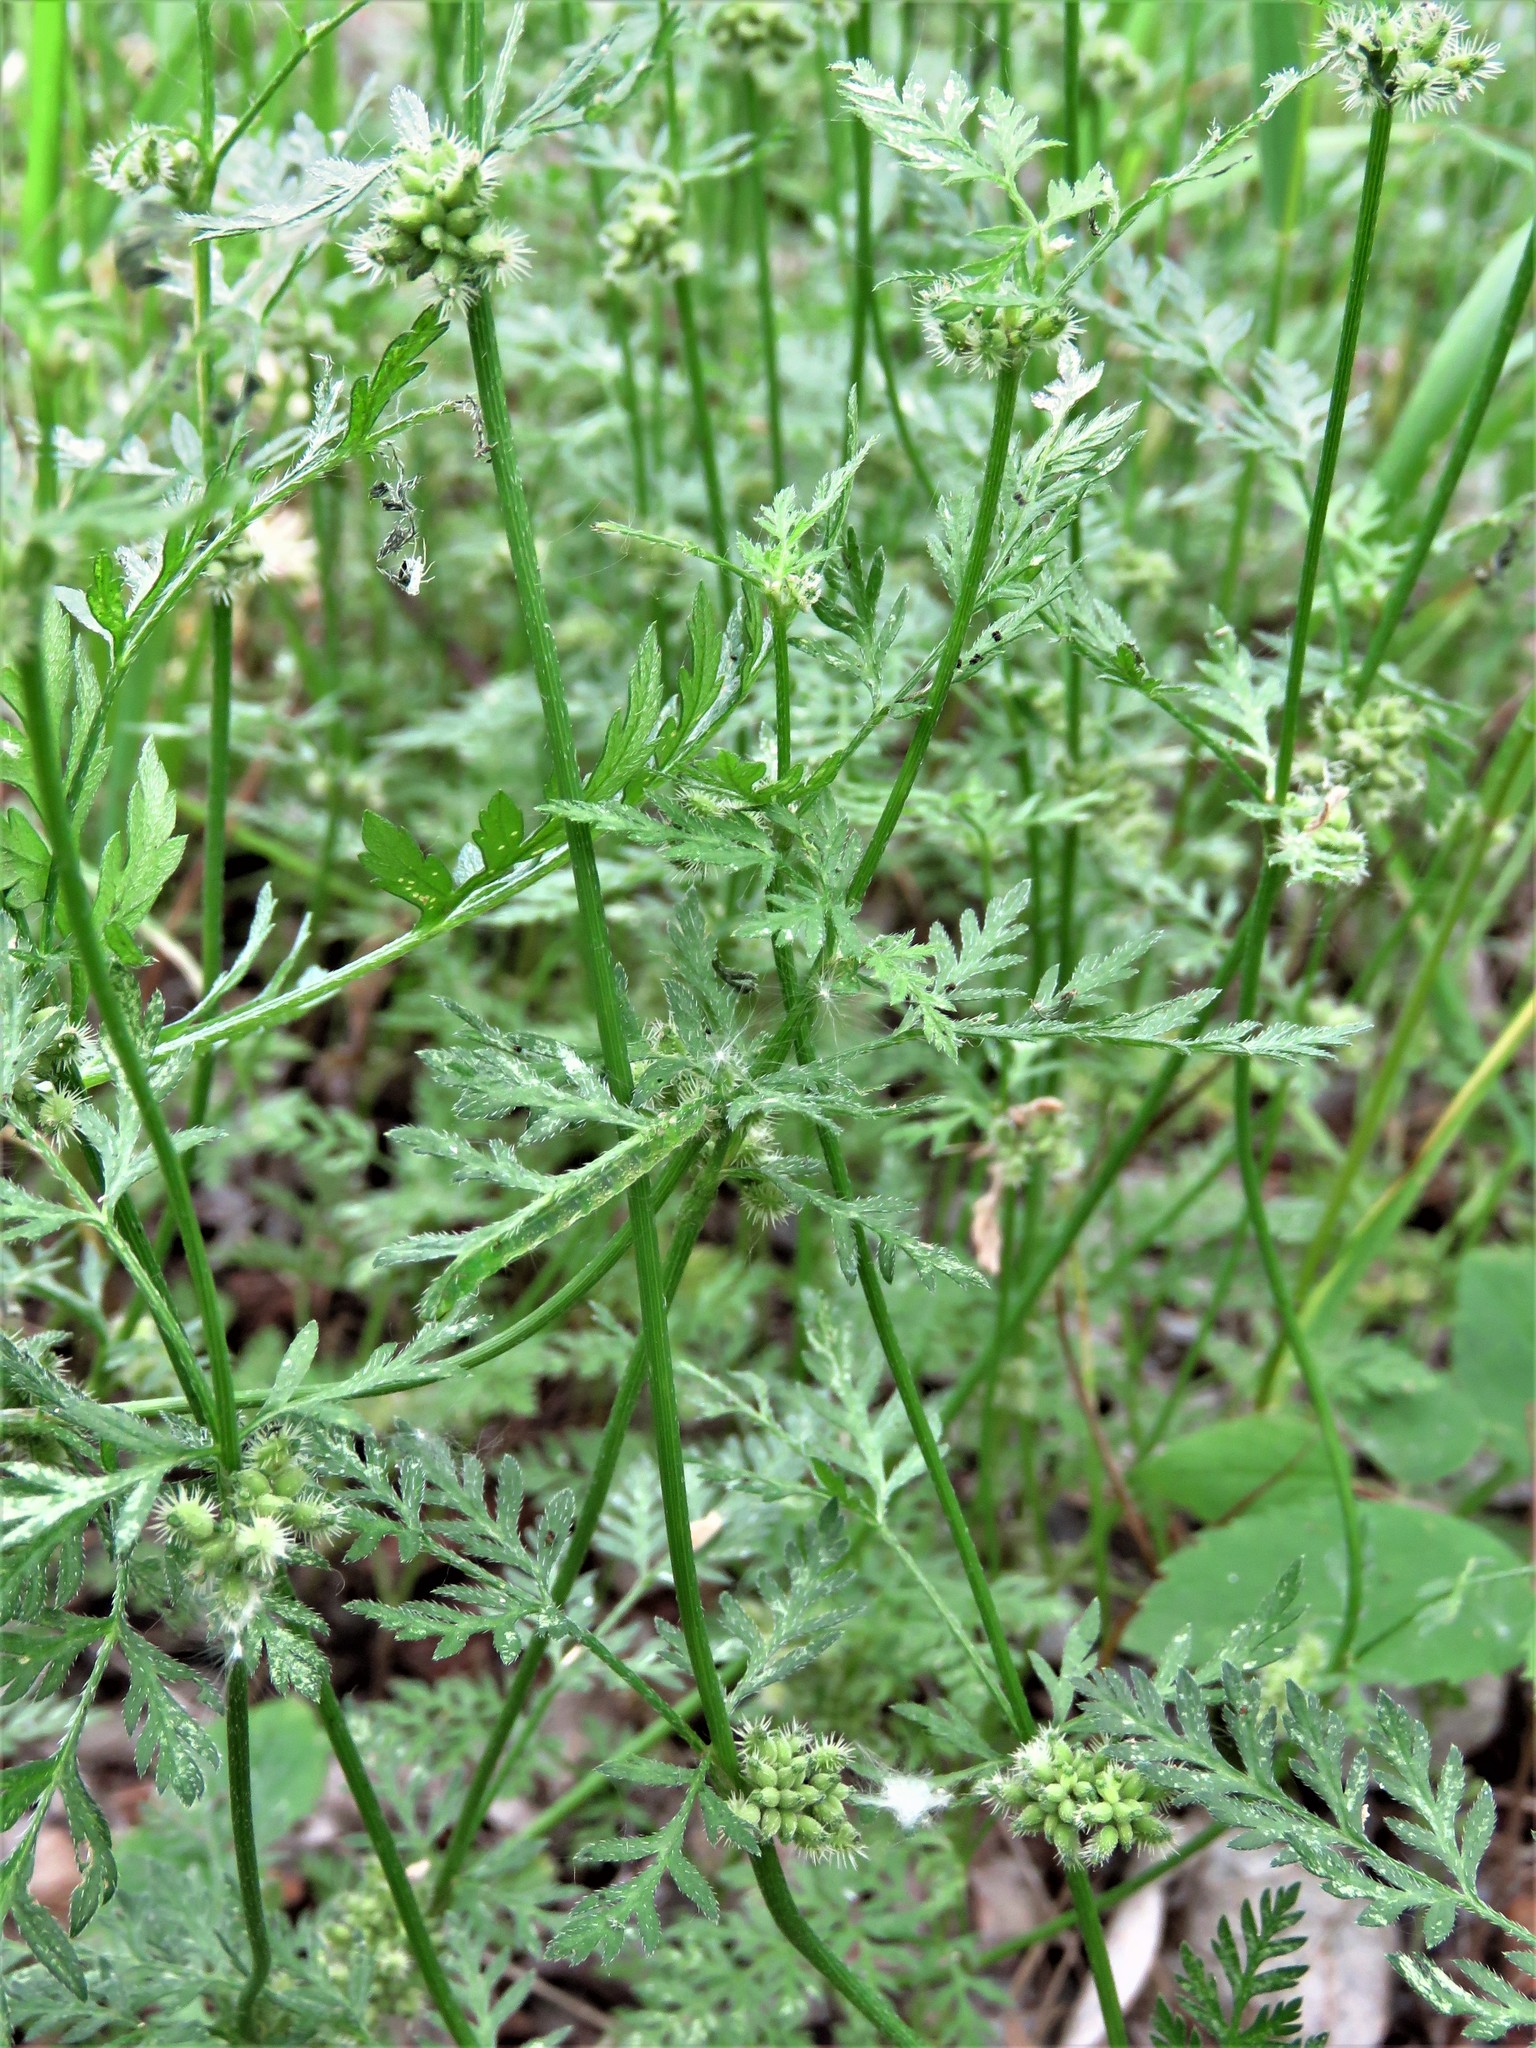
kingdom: Plantae
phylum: Tracheophyta
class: Magnoliopsida
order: Apiales
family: Apiaceae
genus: Torilis
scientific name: Torilis nodosa
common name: Knotted hedge-parsley
